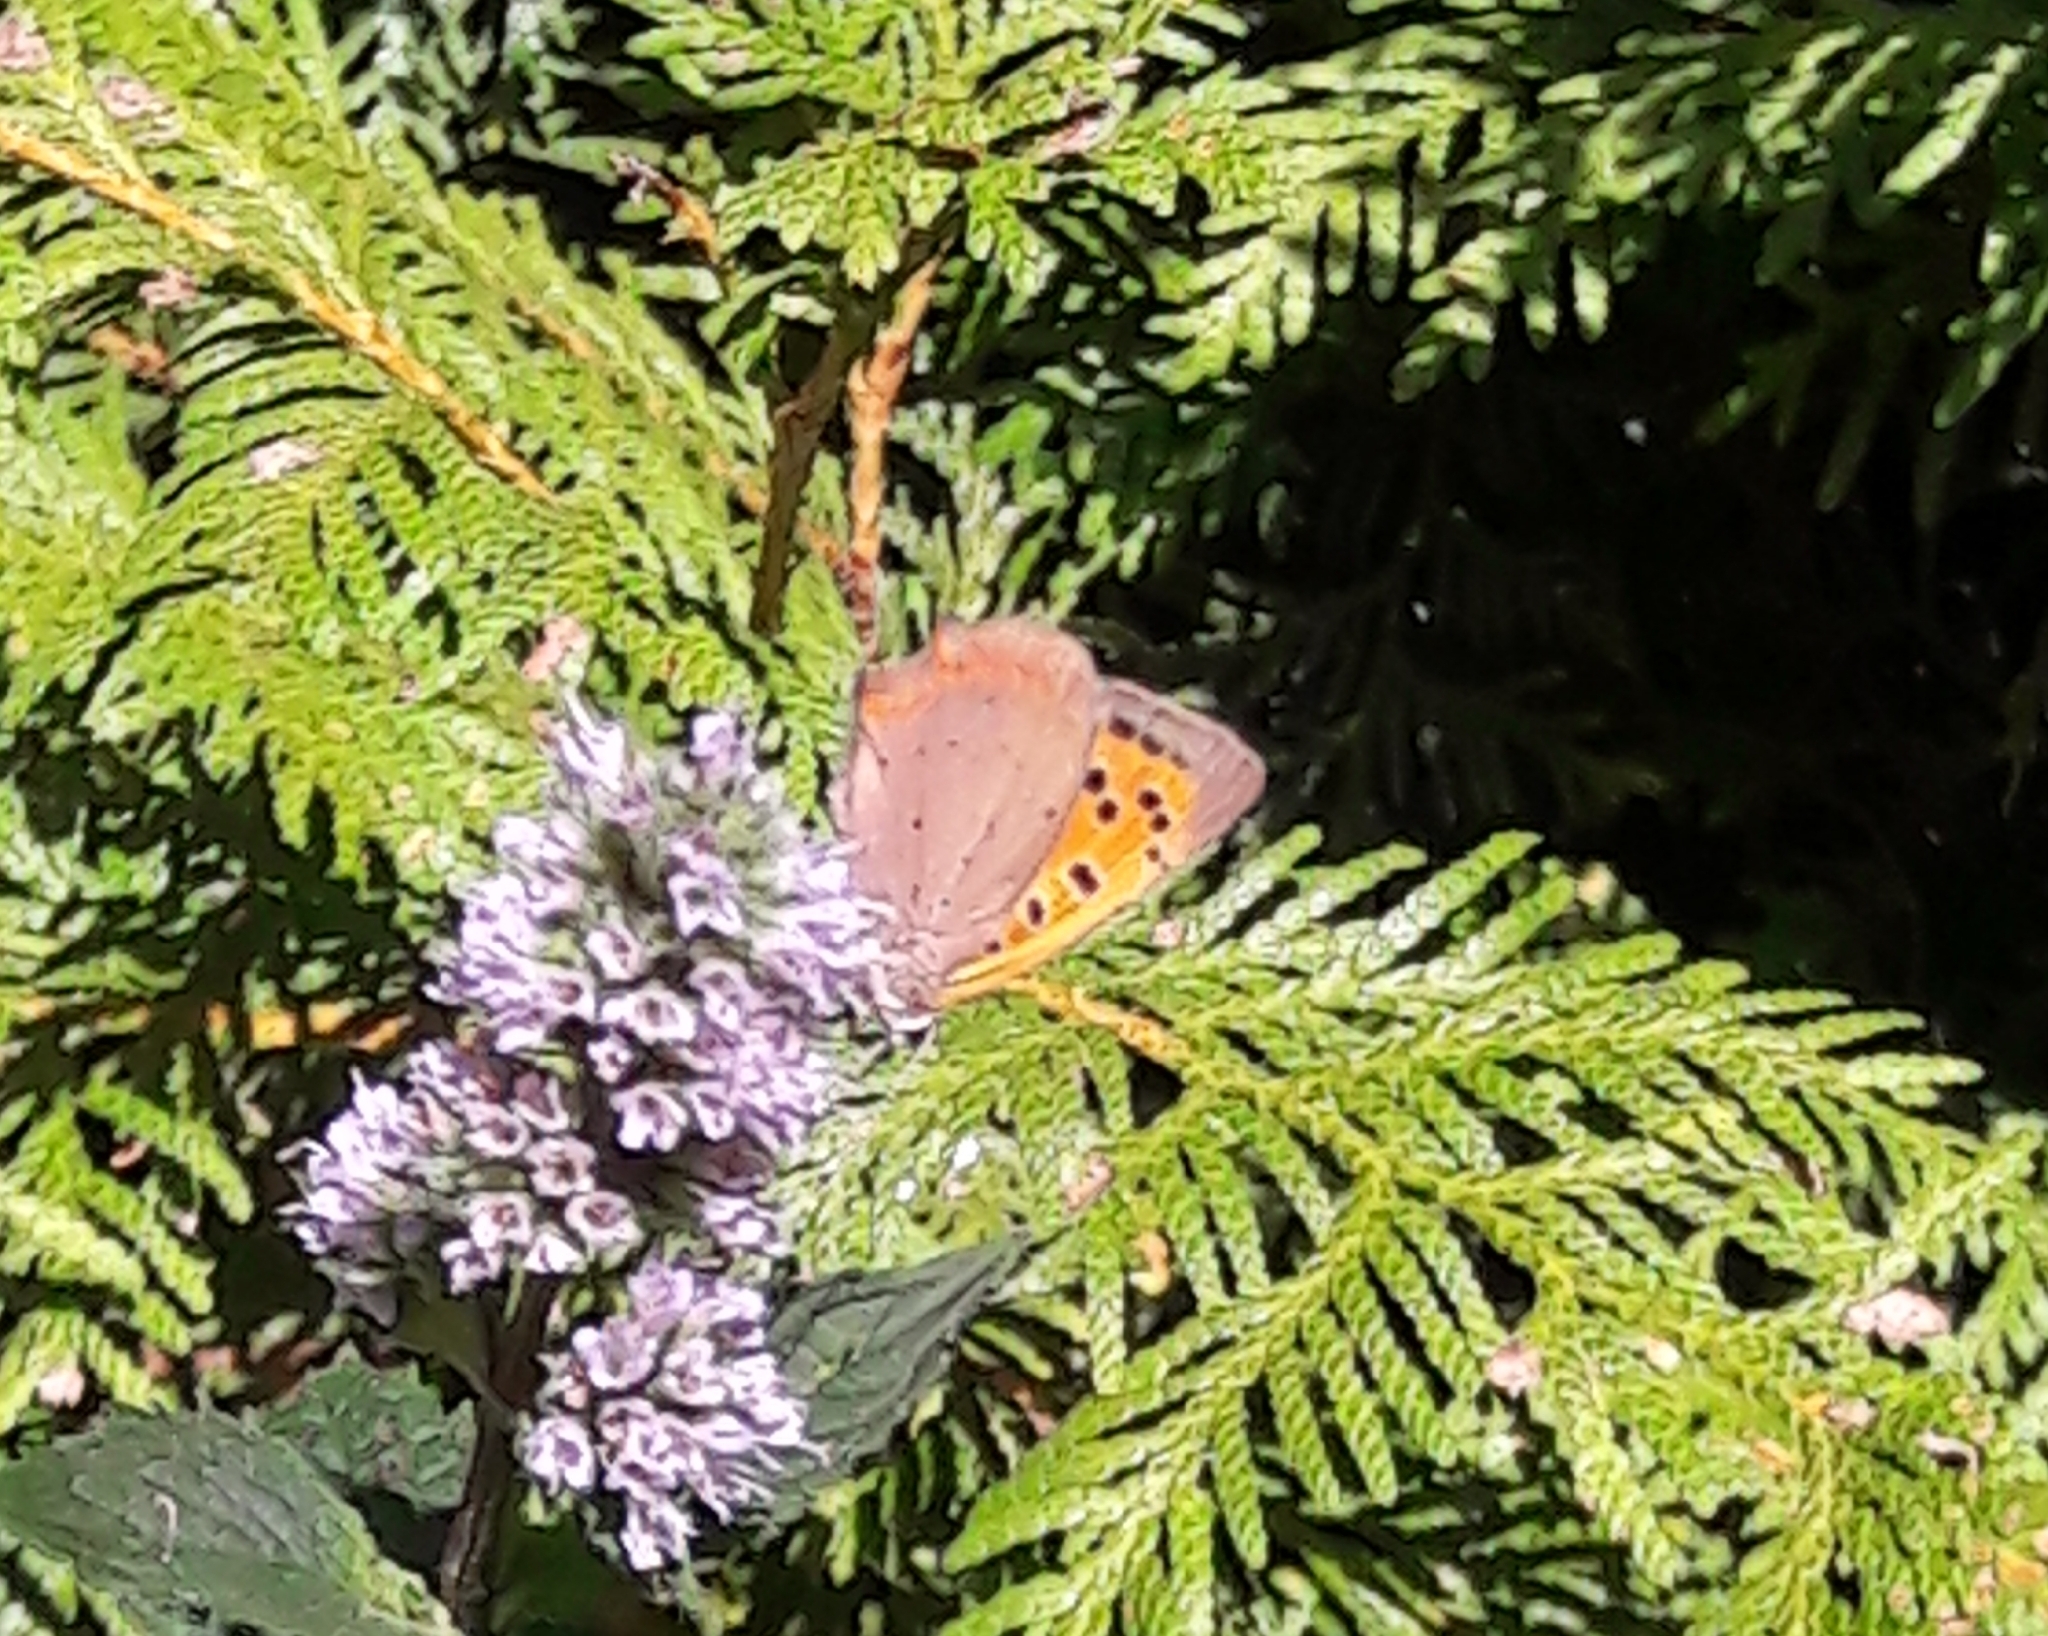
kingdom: Animalia
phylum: Arthropoda
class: Insecta
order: Lepidoptera
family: Lycaenidae
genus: Lycaena
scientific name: Lycaena phlaeas
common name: Small copper
